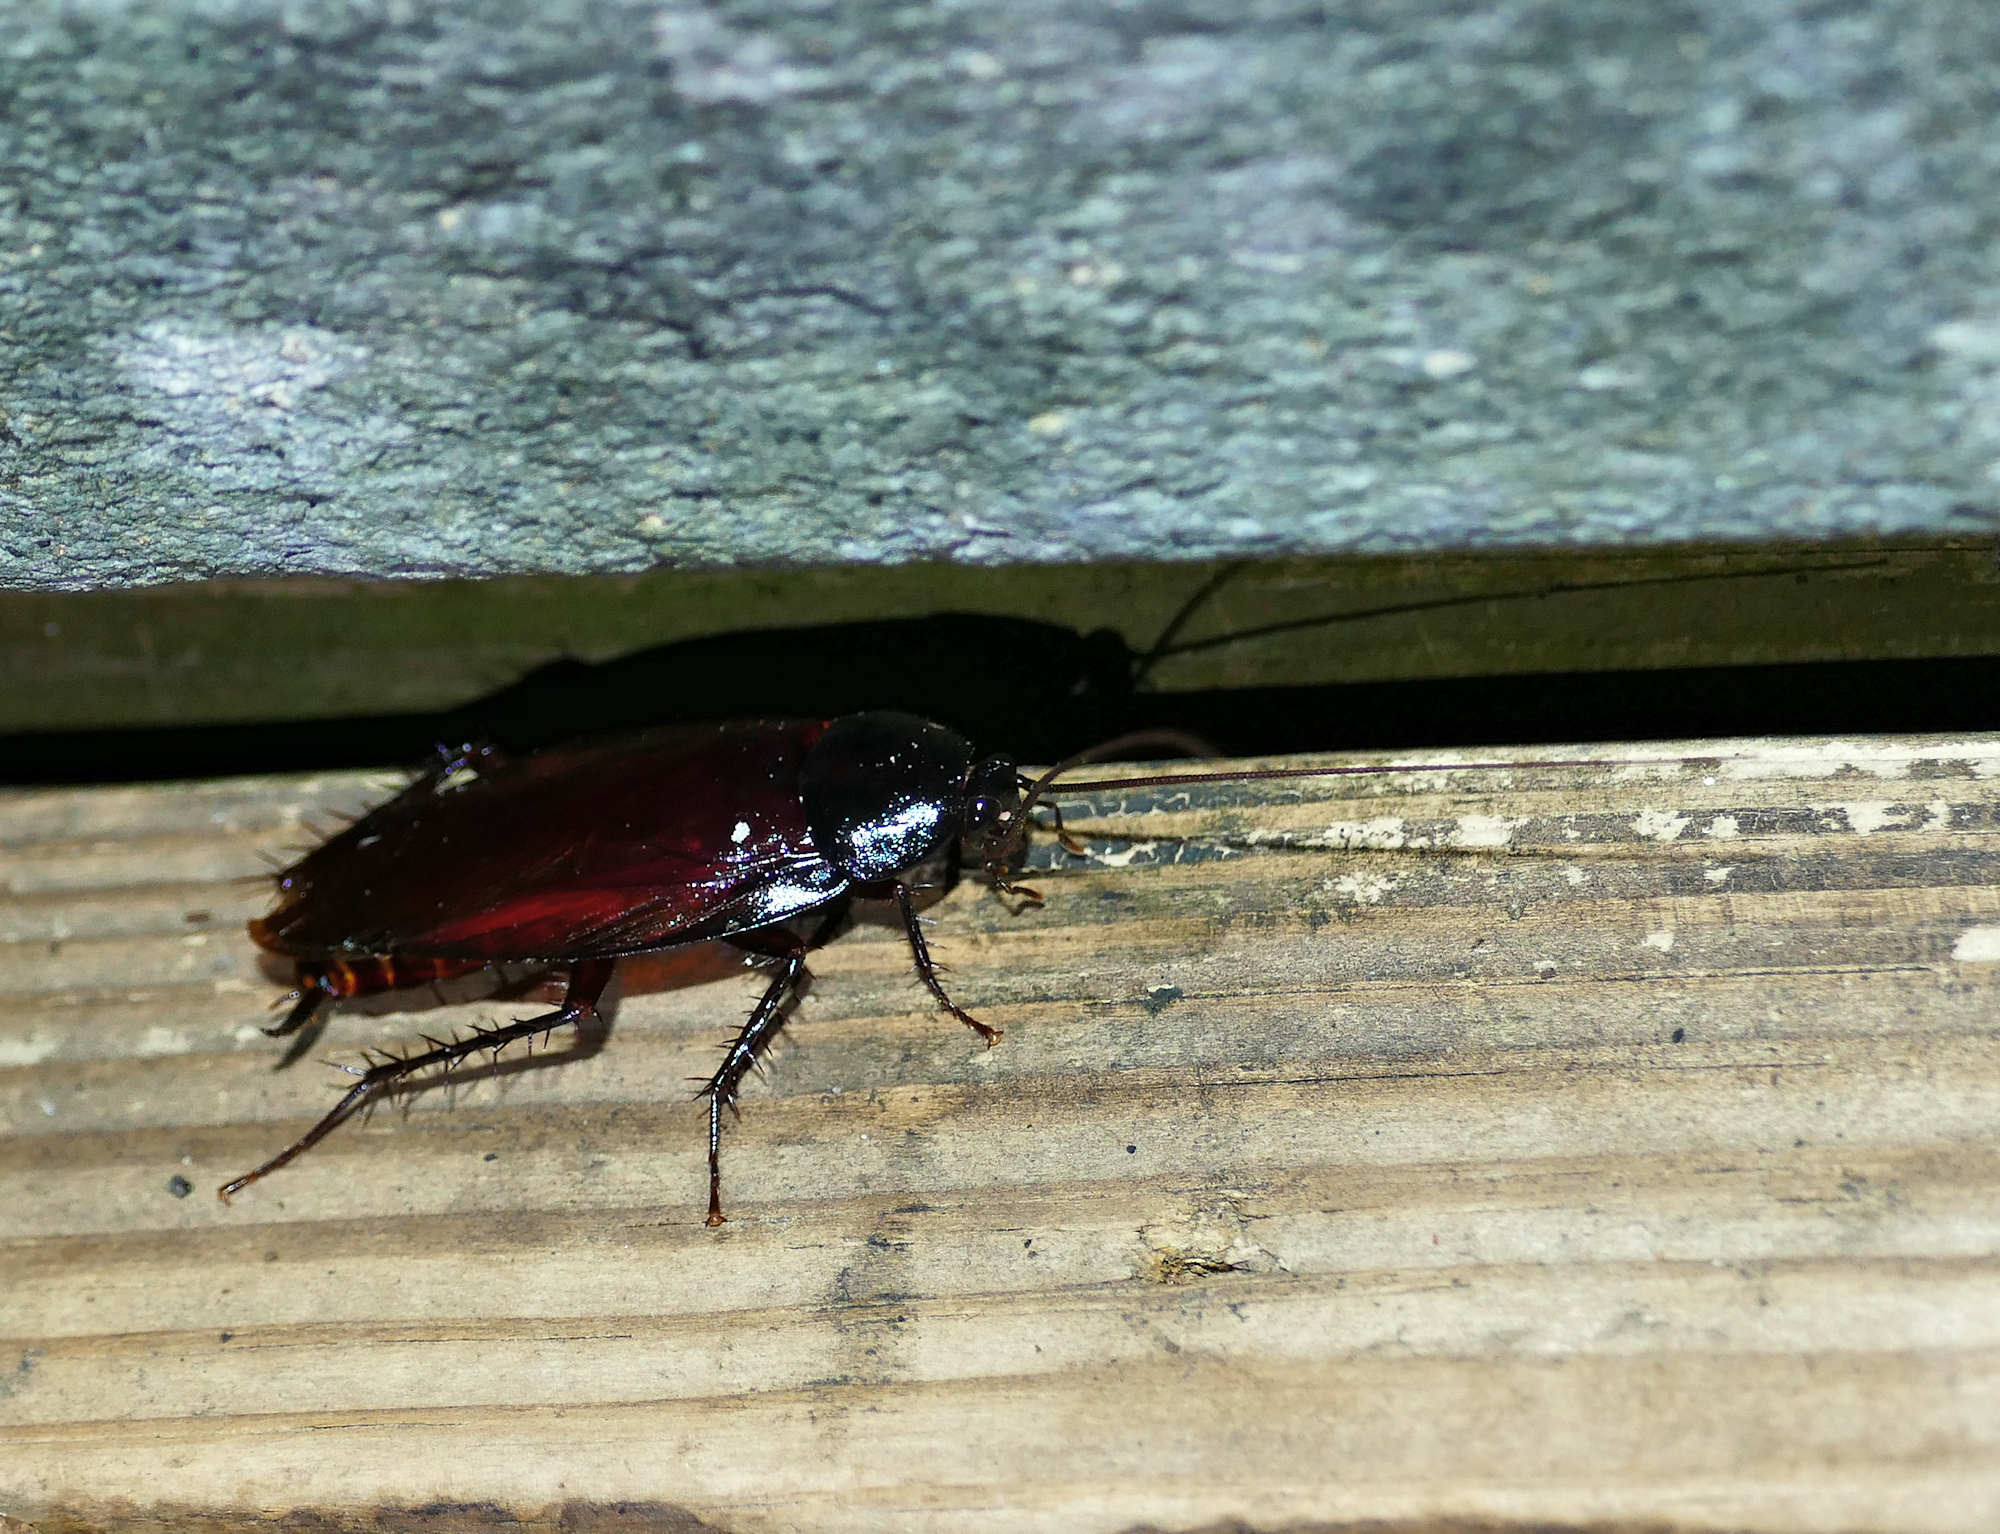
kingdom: Animalia
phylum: Arthropoda
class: Insecta
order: Blattodea
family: Blattidae
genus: Periplaneta
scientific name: Periplaneta fuliginosa
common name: Smokeybrown cockroad
